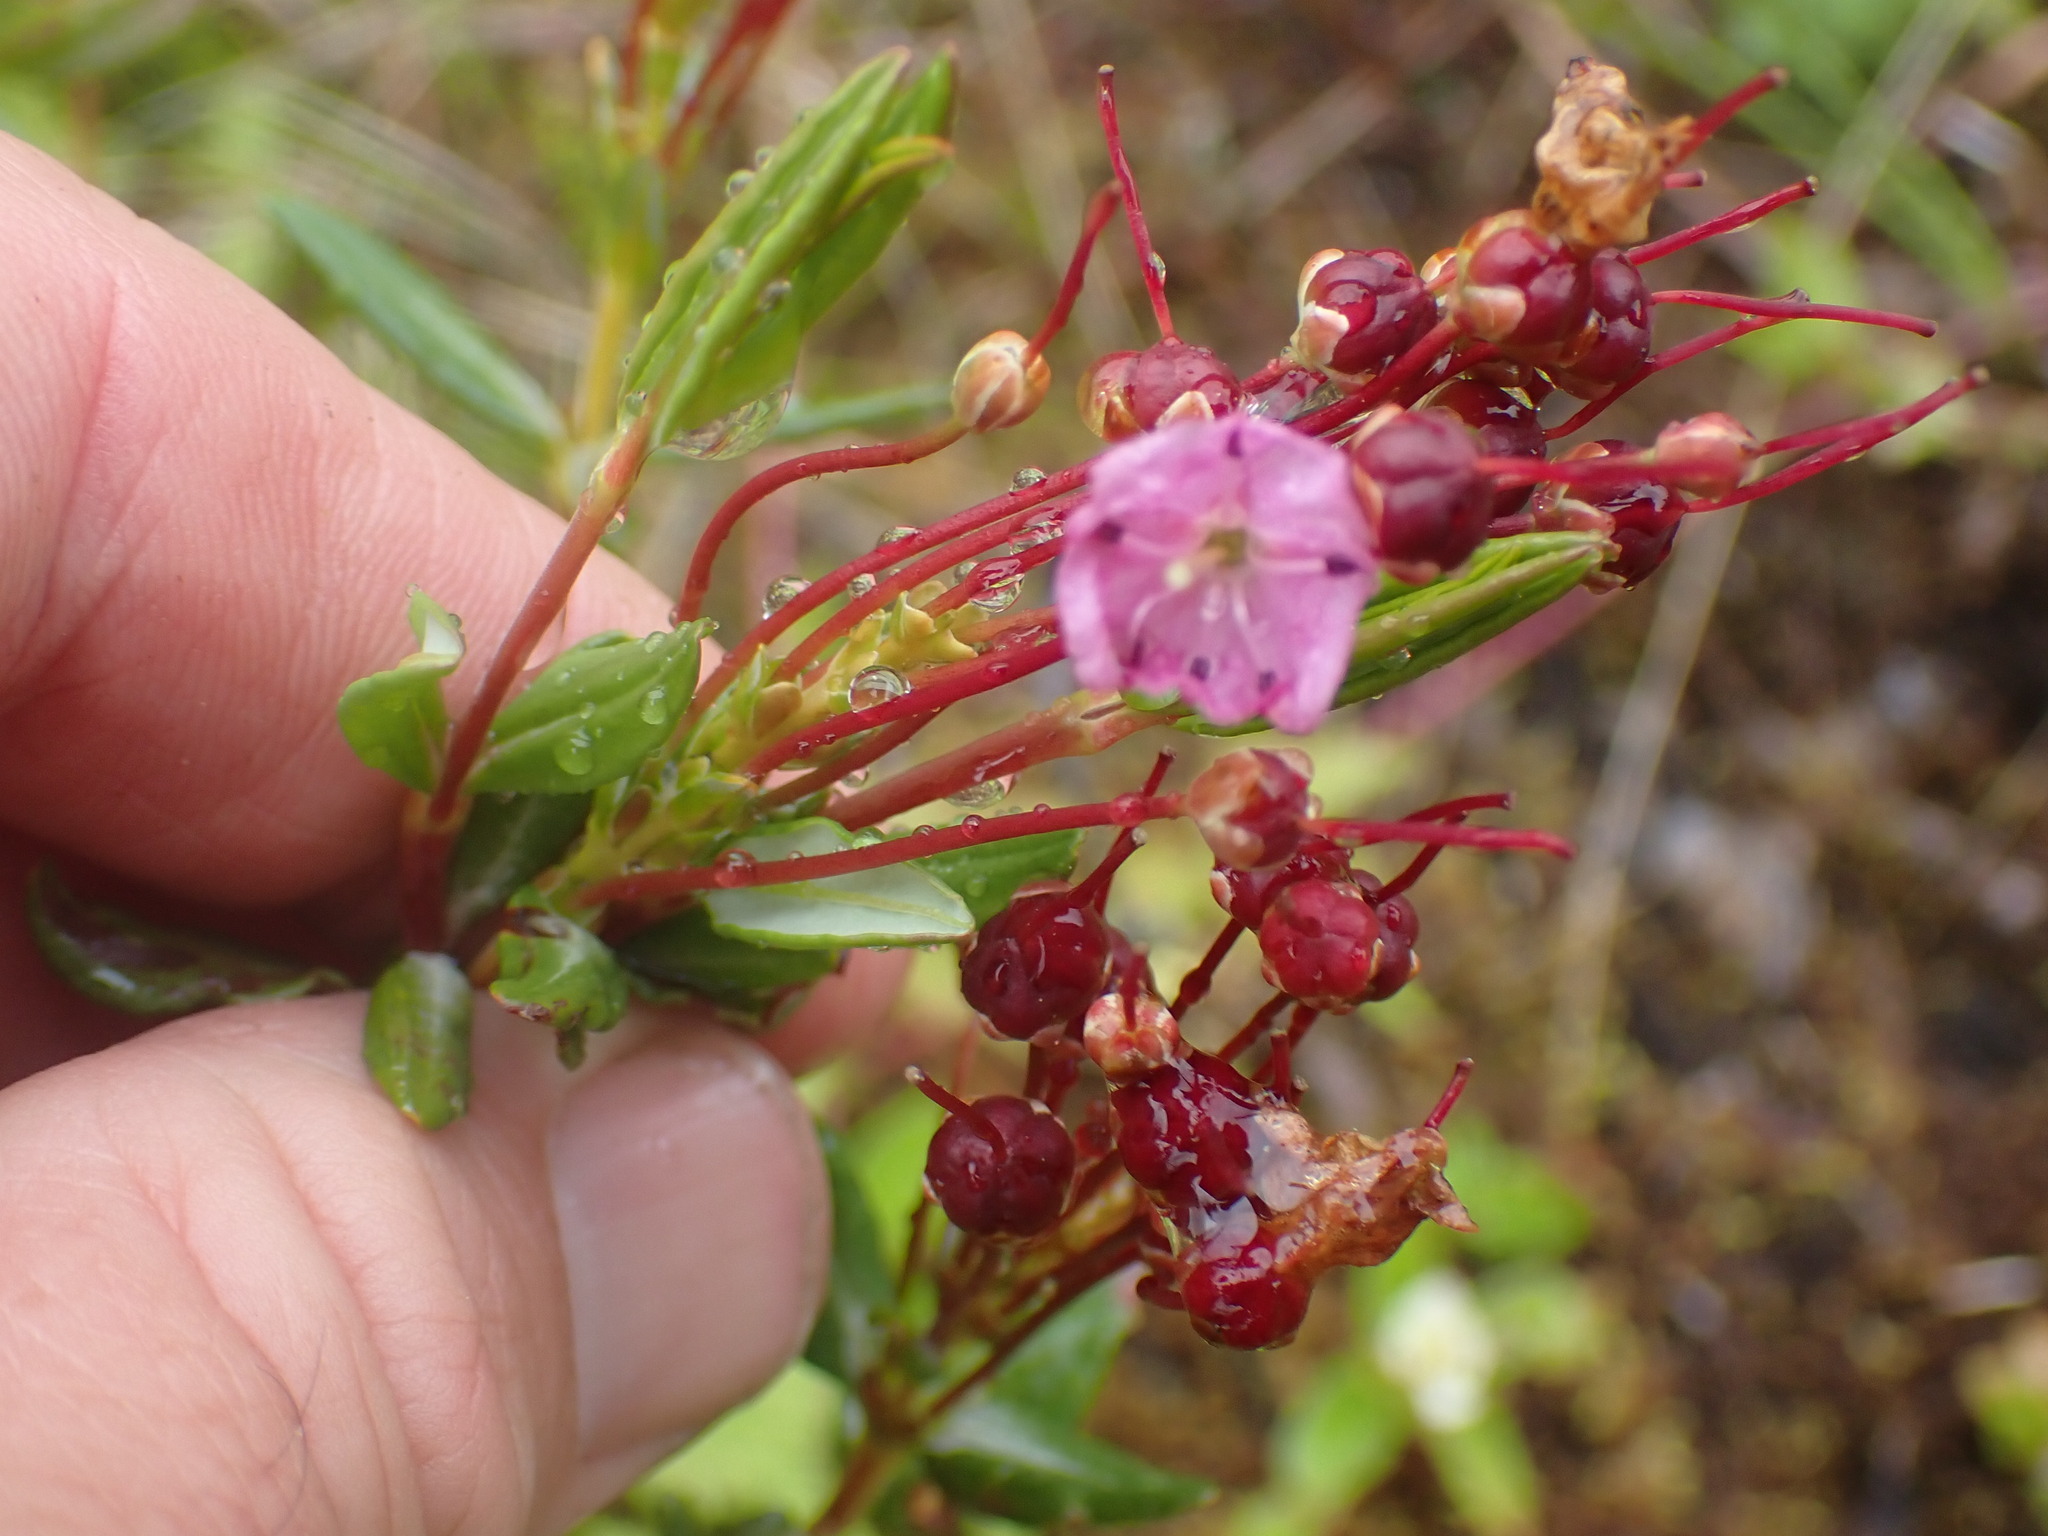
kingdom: Plantae
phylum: Tracheophyta
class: Magnoliopsida
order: Ericales
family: Ericaceae
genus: Kalmia
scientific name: Kalmia microphylla
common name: Alpine bog laurel
